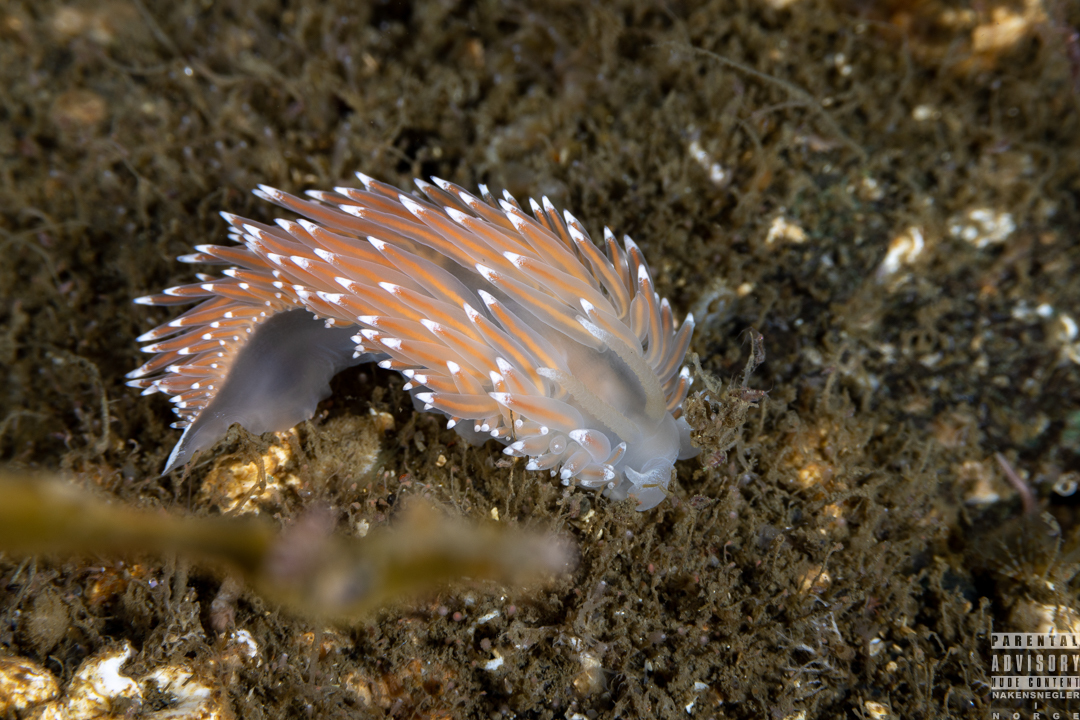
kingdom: Animalia
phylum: Mollusca
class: Gastropoda
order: Nudibranchia
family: Coryphellidae
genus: Coryphella
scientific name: Coryphella nobilis
